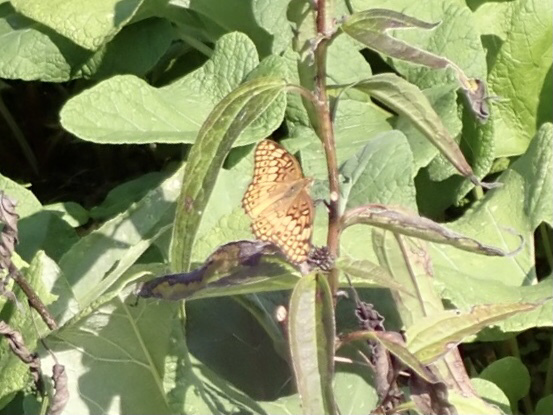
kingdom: Animalia
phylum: Arthropoda
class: Insecta
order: Lepidoptera
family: Nymphalidae
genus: Euptoieta
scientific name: Euptoieta claudia
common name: Variegated fritillary
